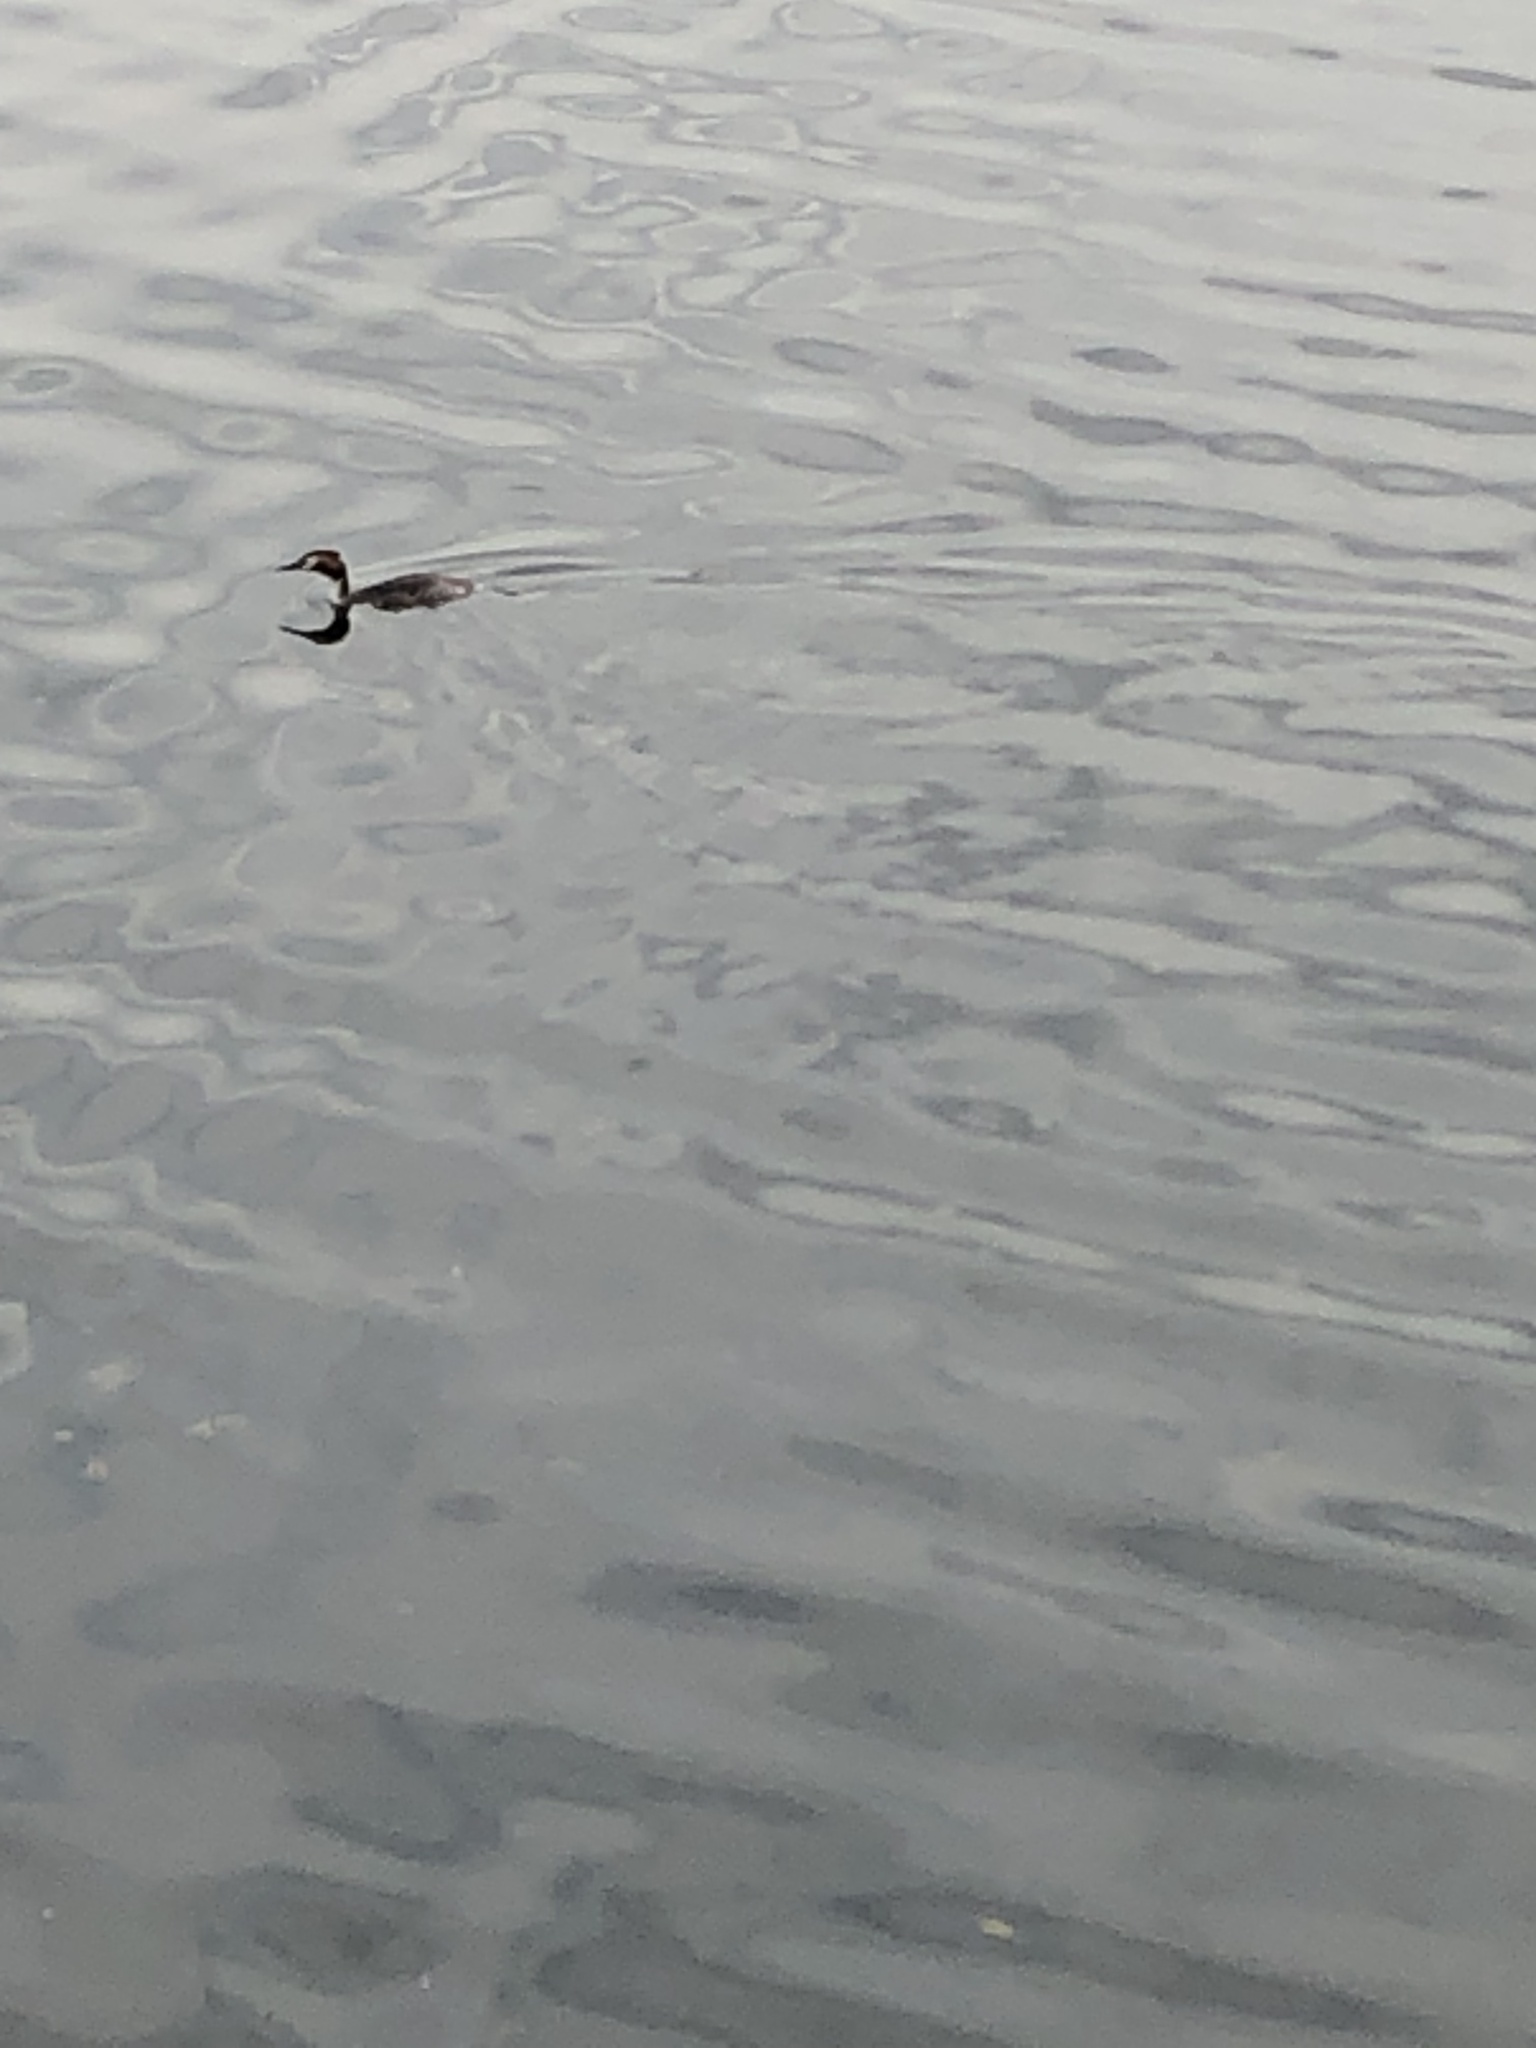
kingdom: Animalia
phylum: Chordata
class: Aves
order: Podicipediformes
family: Podicipedidae
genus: Podiceps
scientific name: Podiceps cristatus
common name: Great crested grebe
